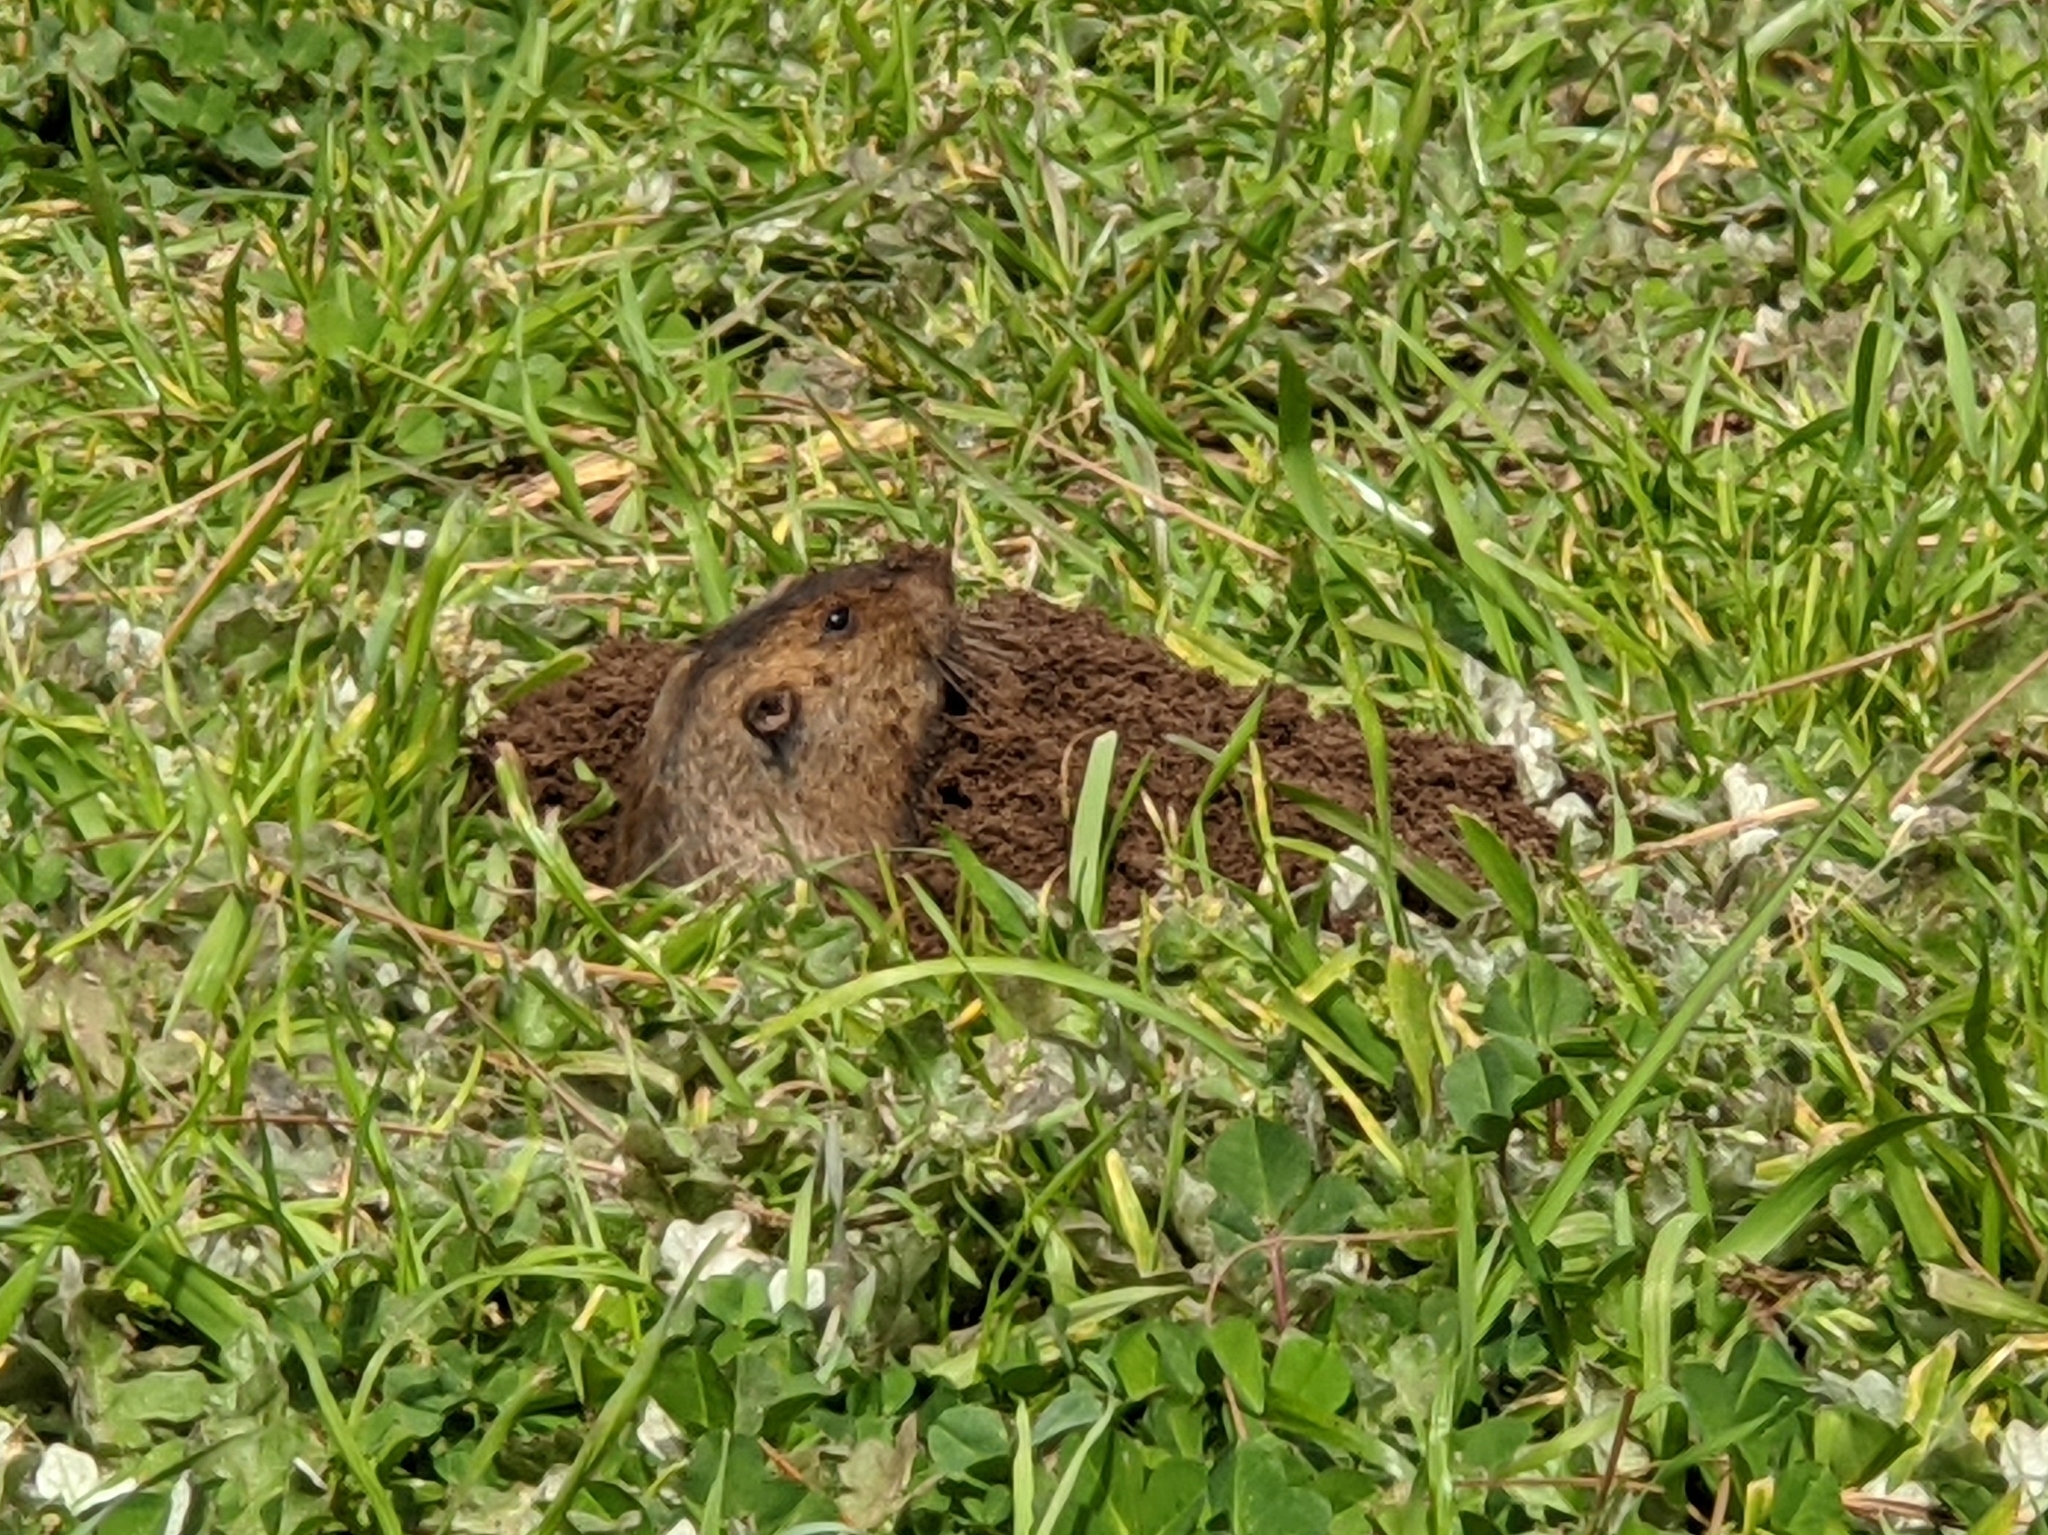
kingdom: Animalia
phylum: Chordata
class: Mammalia
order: Rodentia
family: Geomyidae
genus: Thomomys
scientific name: Thomomys bottae
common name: Botta's pocket gopher
